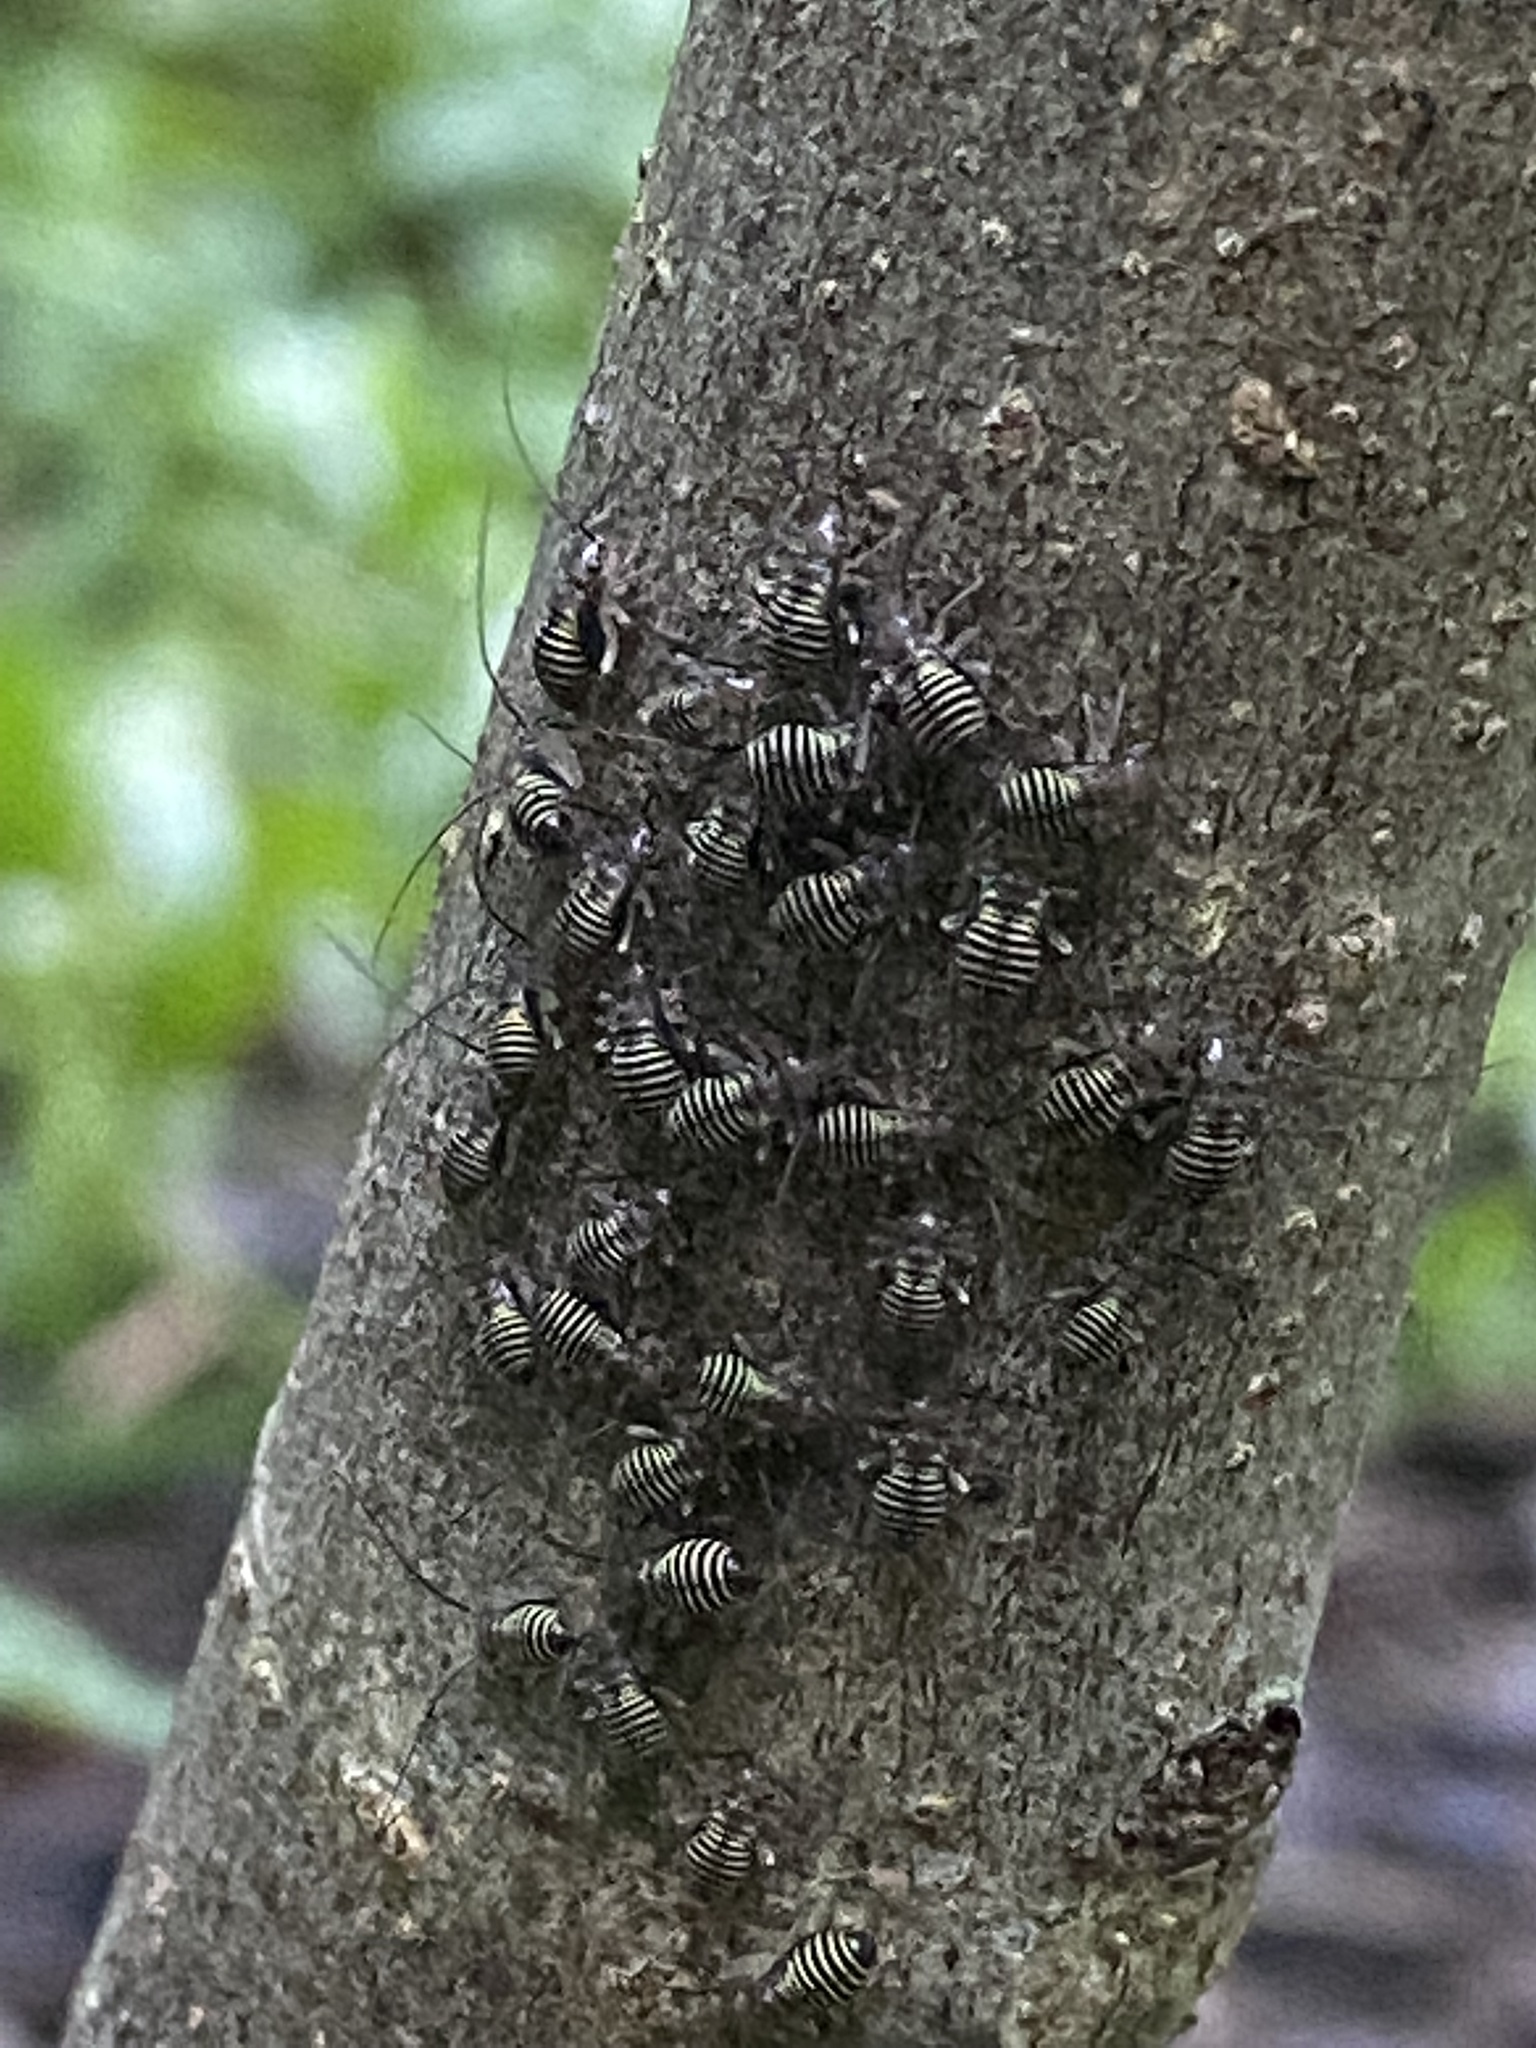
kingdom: Animalia
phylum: Arthropoda
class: Insecta
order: Psocodea
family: Psocidae
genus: Cerastipsocus
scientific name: Cerastipsocus venosus
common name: Tree cattle
